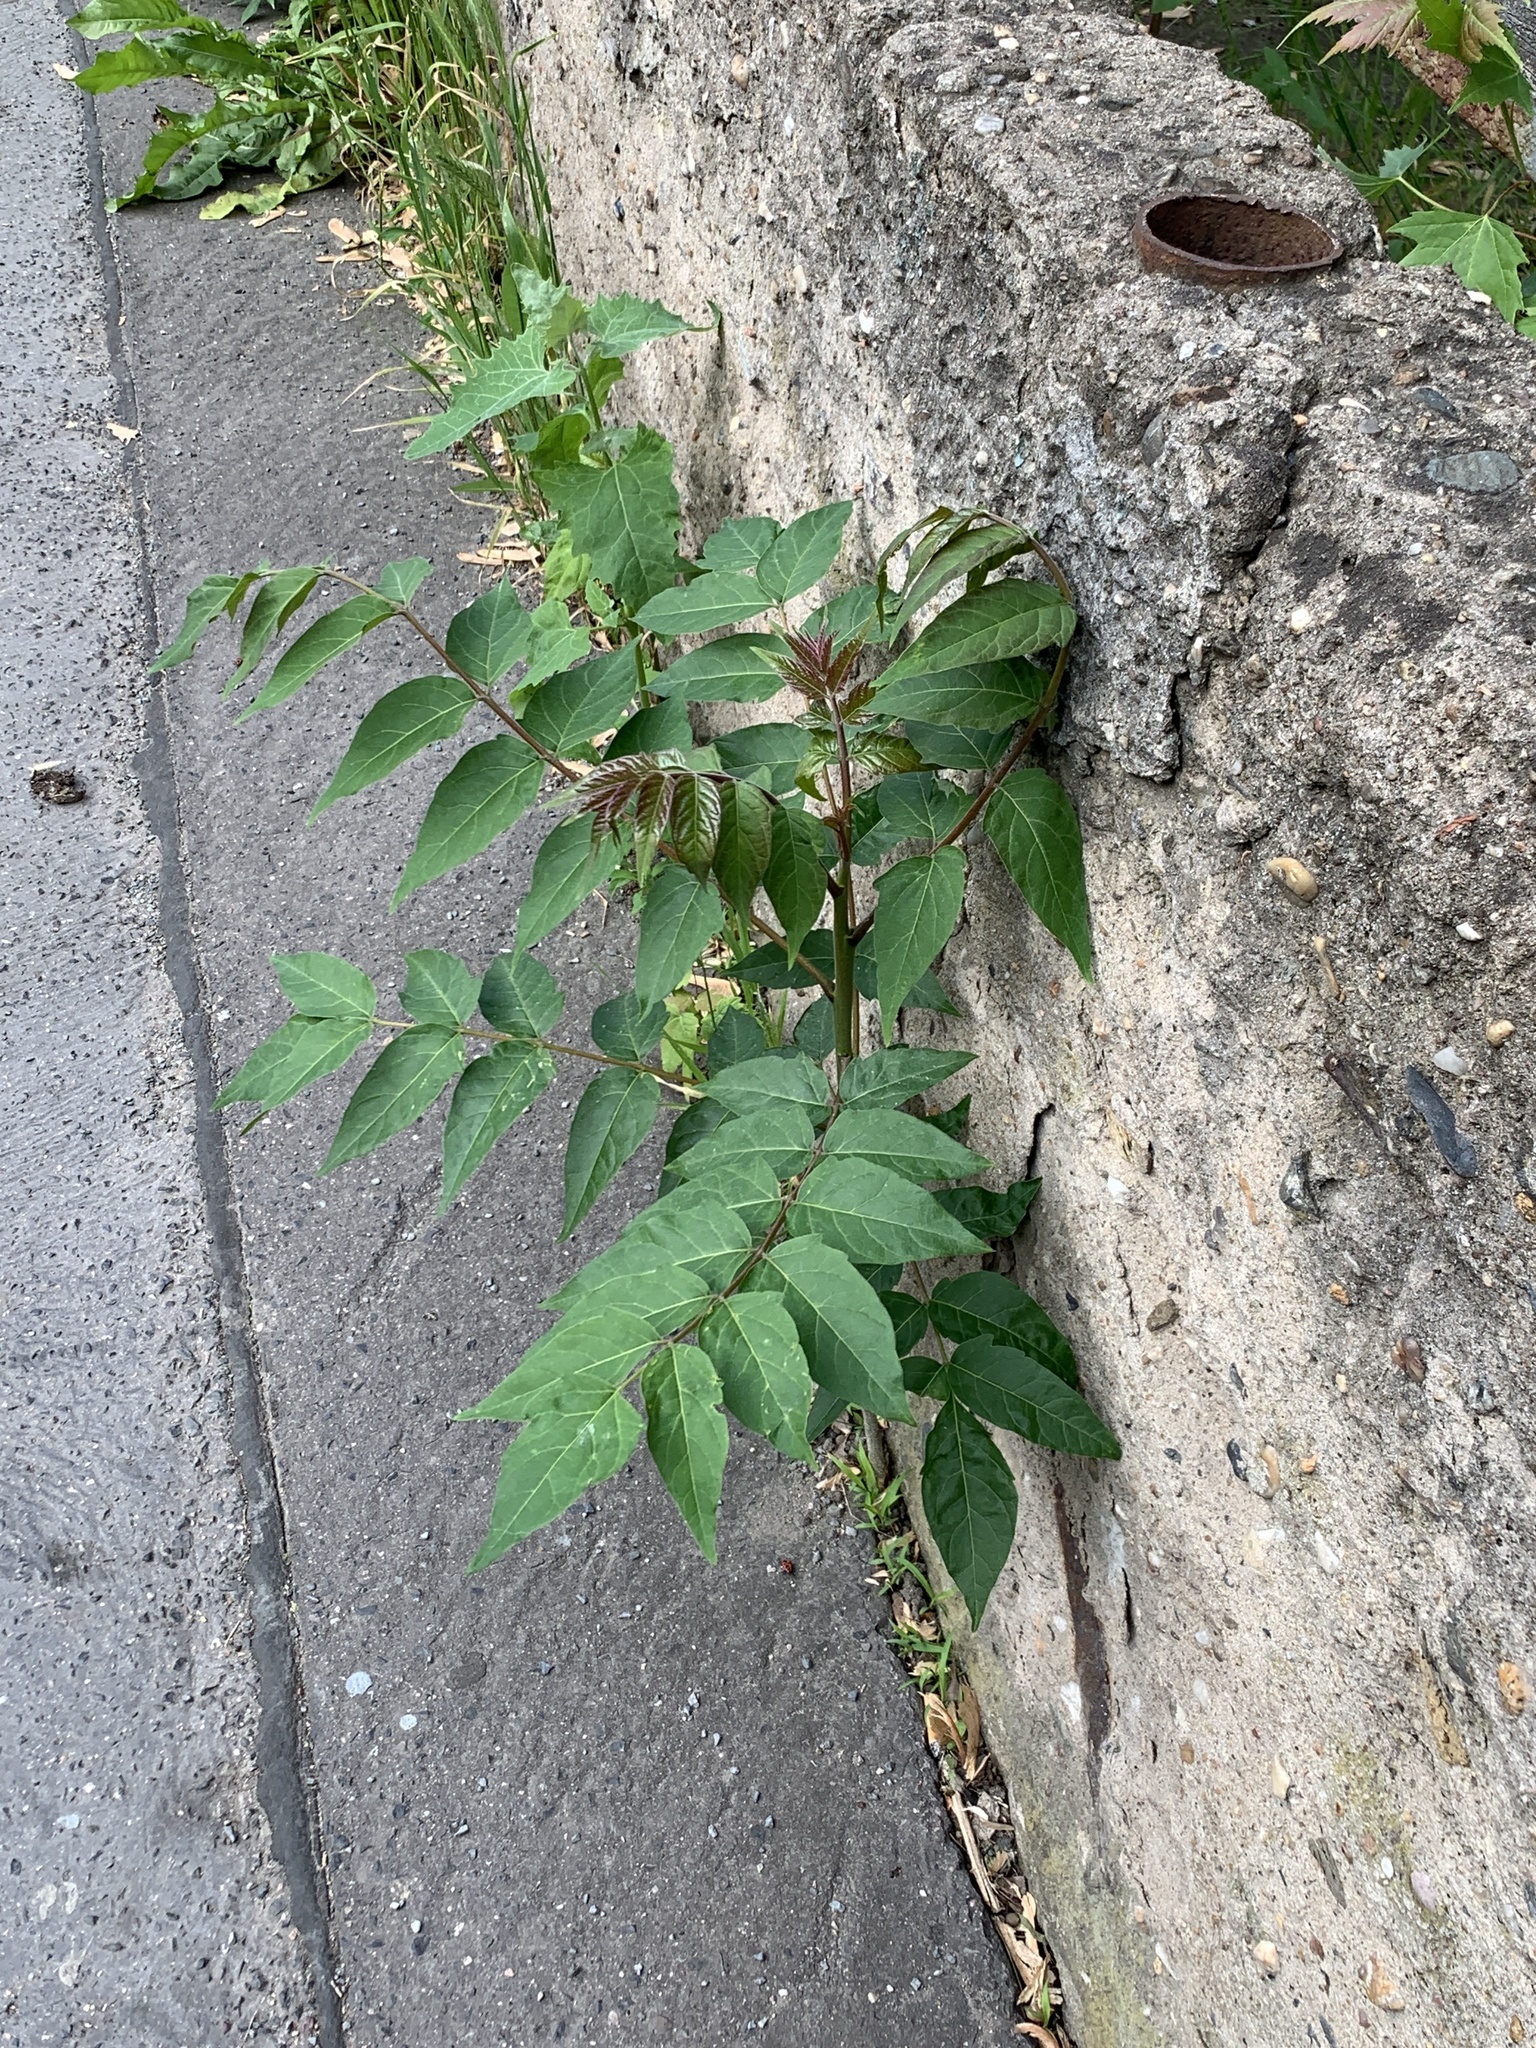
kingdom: Plantae
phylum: Tracheophyta
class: Magnoliopsida
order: Sapindales
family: Simaroubaceae
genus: Ailanthus
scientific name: Ailanthus altissima
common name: Tree-of-heaven
